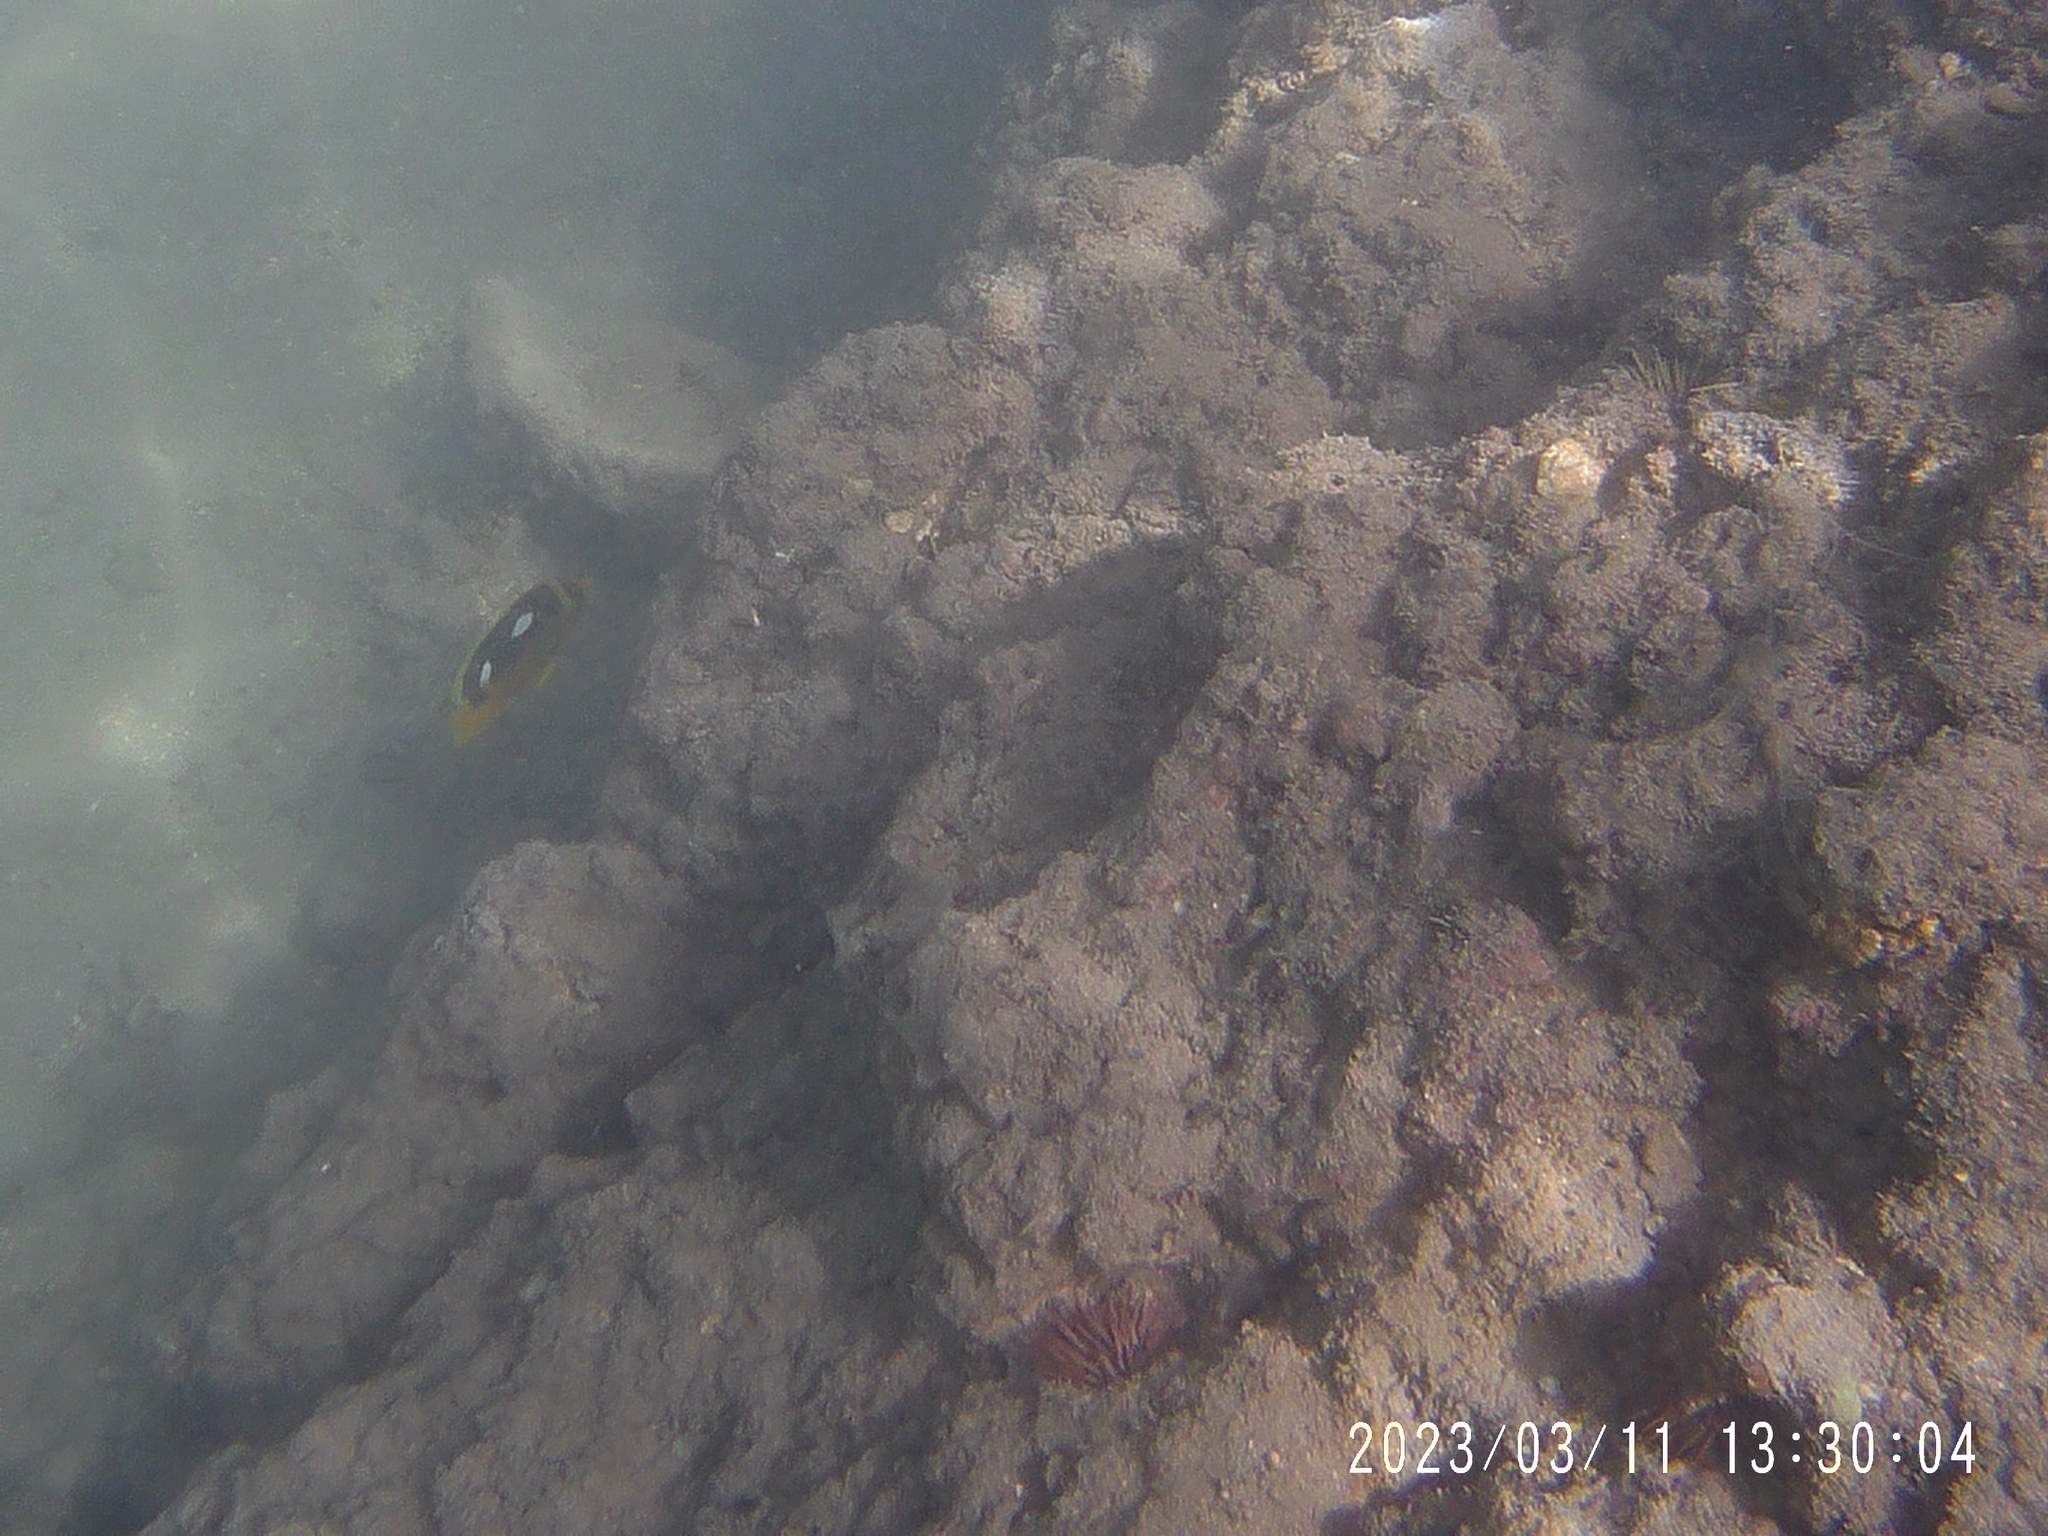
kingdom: Animalia
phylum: Chordata
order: Perciformes
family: Chaetodontidae
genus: Chaetodon
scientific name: Chaetodon quadrimaculatus
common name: Fourspot butterflyfish
